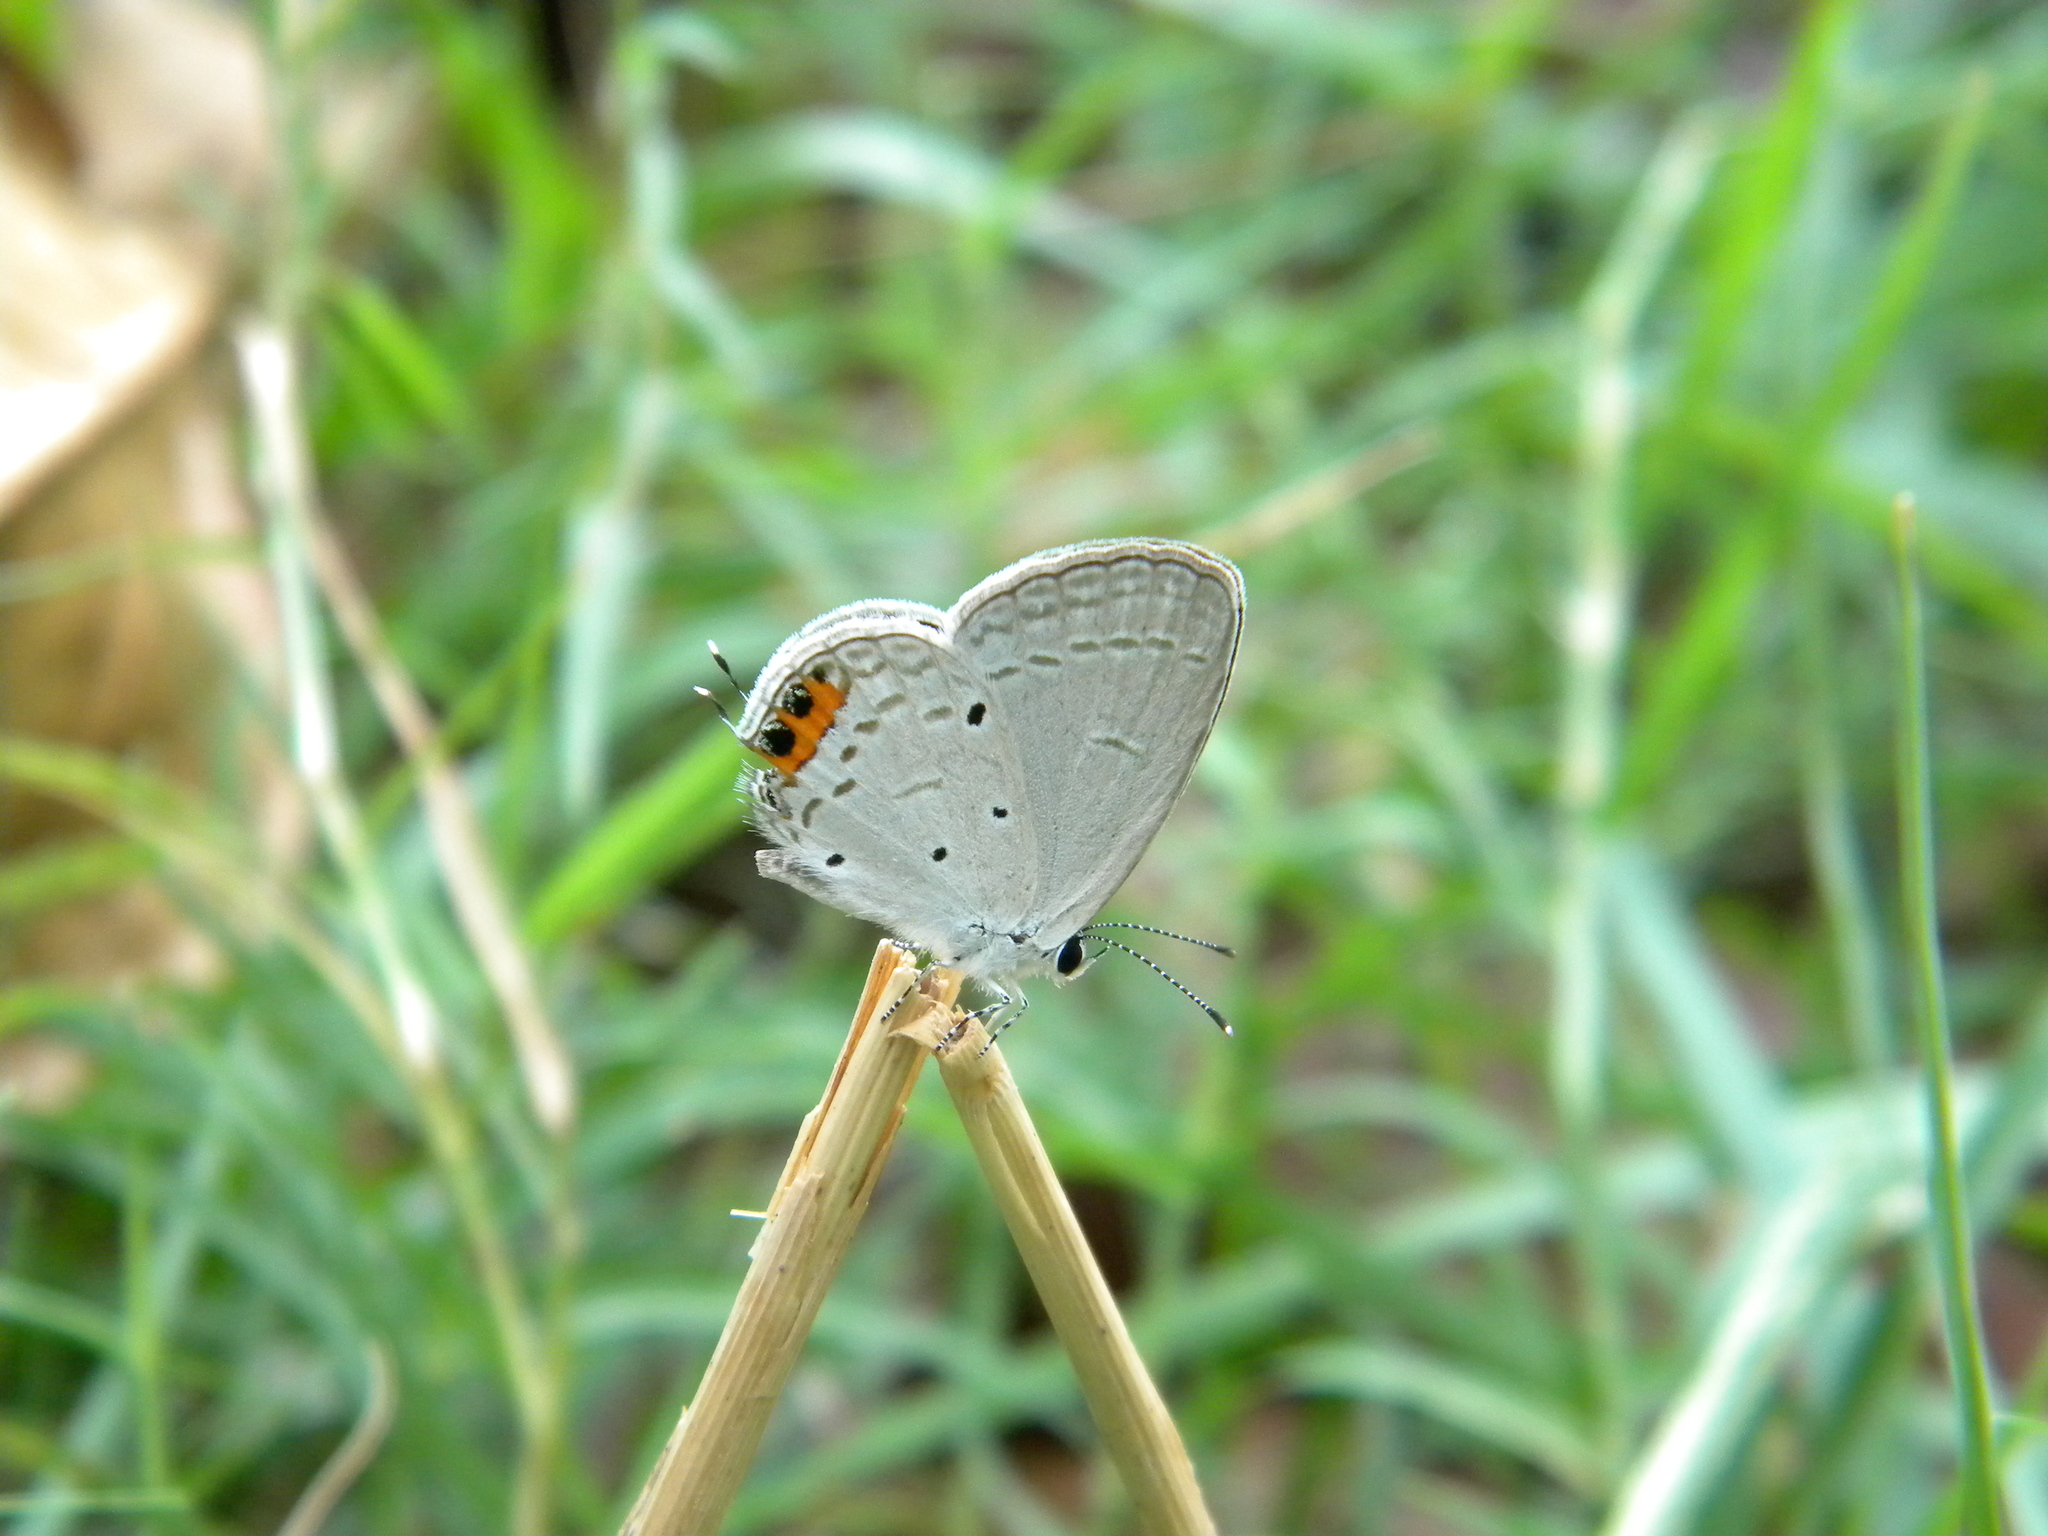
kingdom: Animalia
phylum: Arthropoda
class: Insecta
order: Lepidoptera
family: Lycaenidae
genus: Everes
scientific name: Everes lacturnus
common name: Orange-tipped pea-blue
